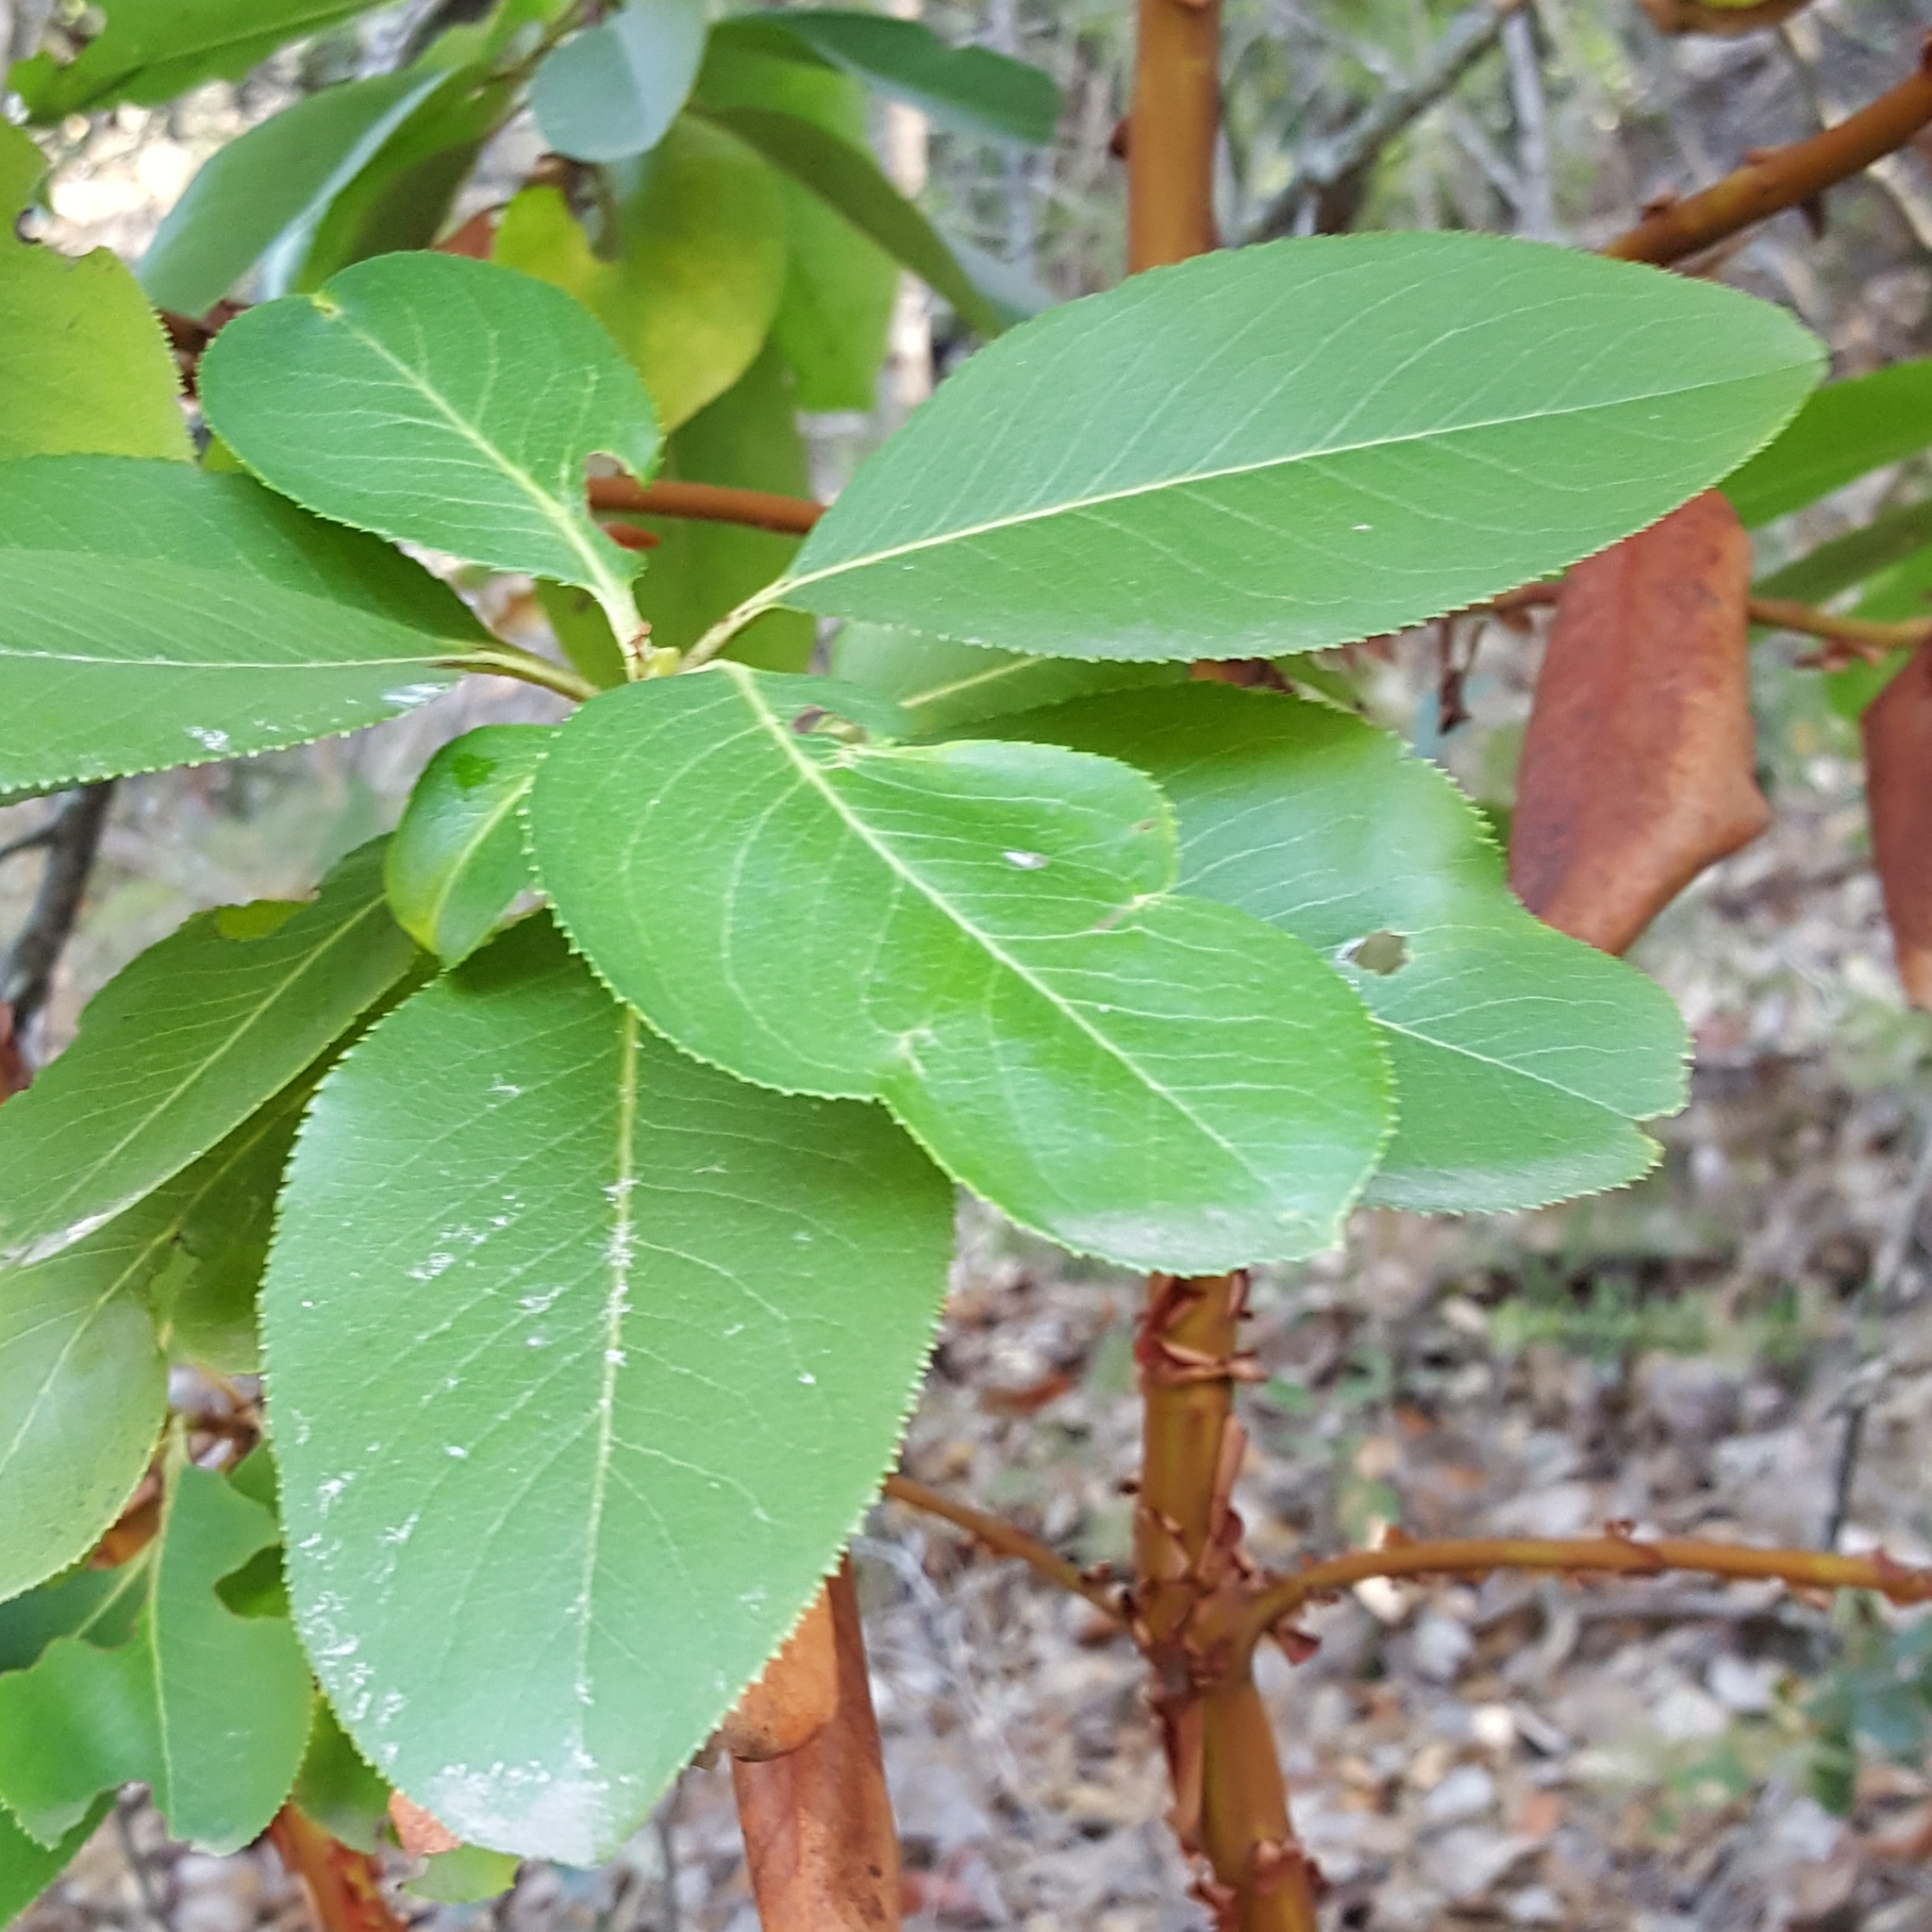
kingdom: Plantae
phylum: Tracheophyta
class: Magnoliopsida
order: Ericales
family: Ericaceae
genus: Arbutus
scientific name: Arbutus menziesii
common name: Pacific madrone
